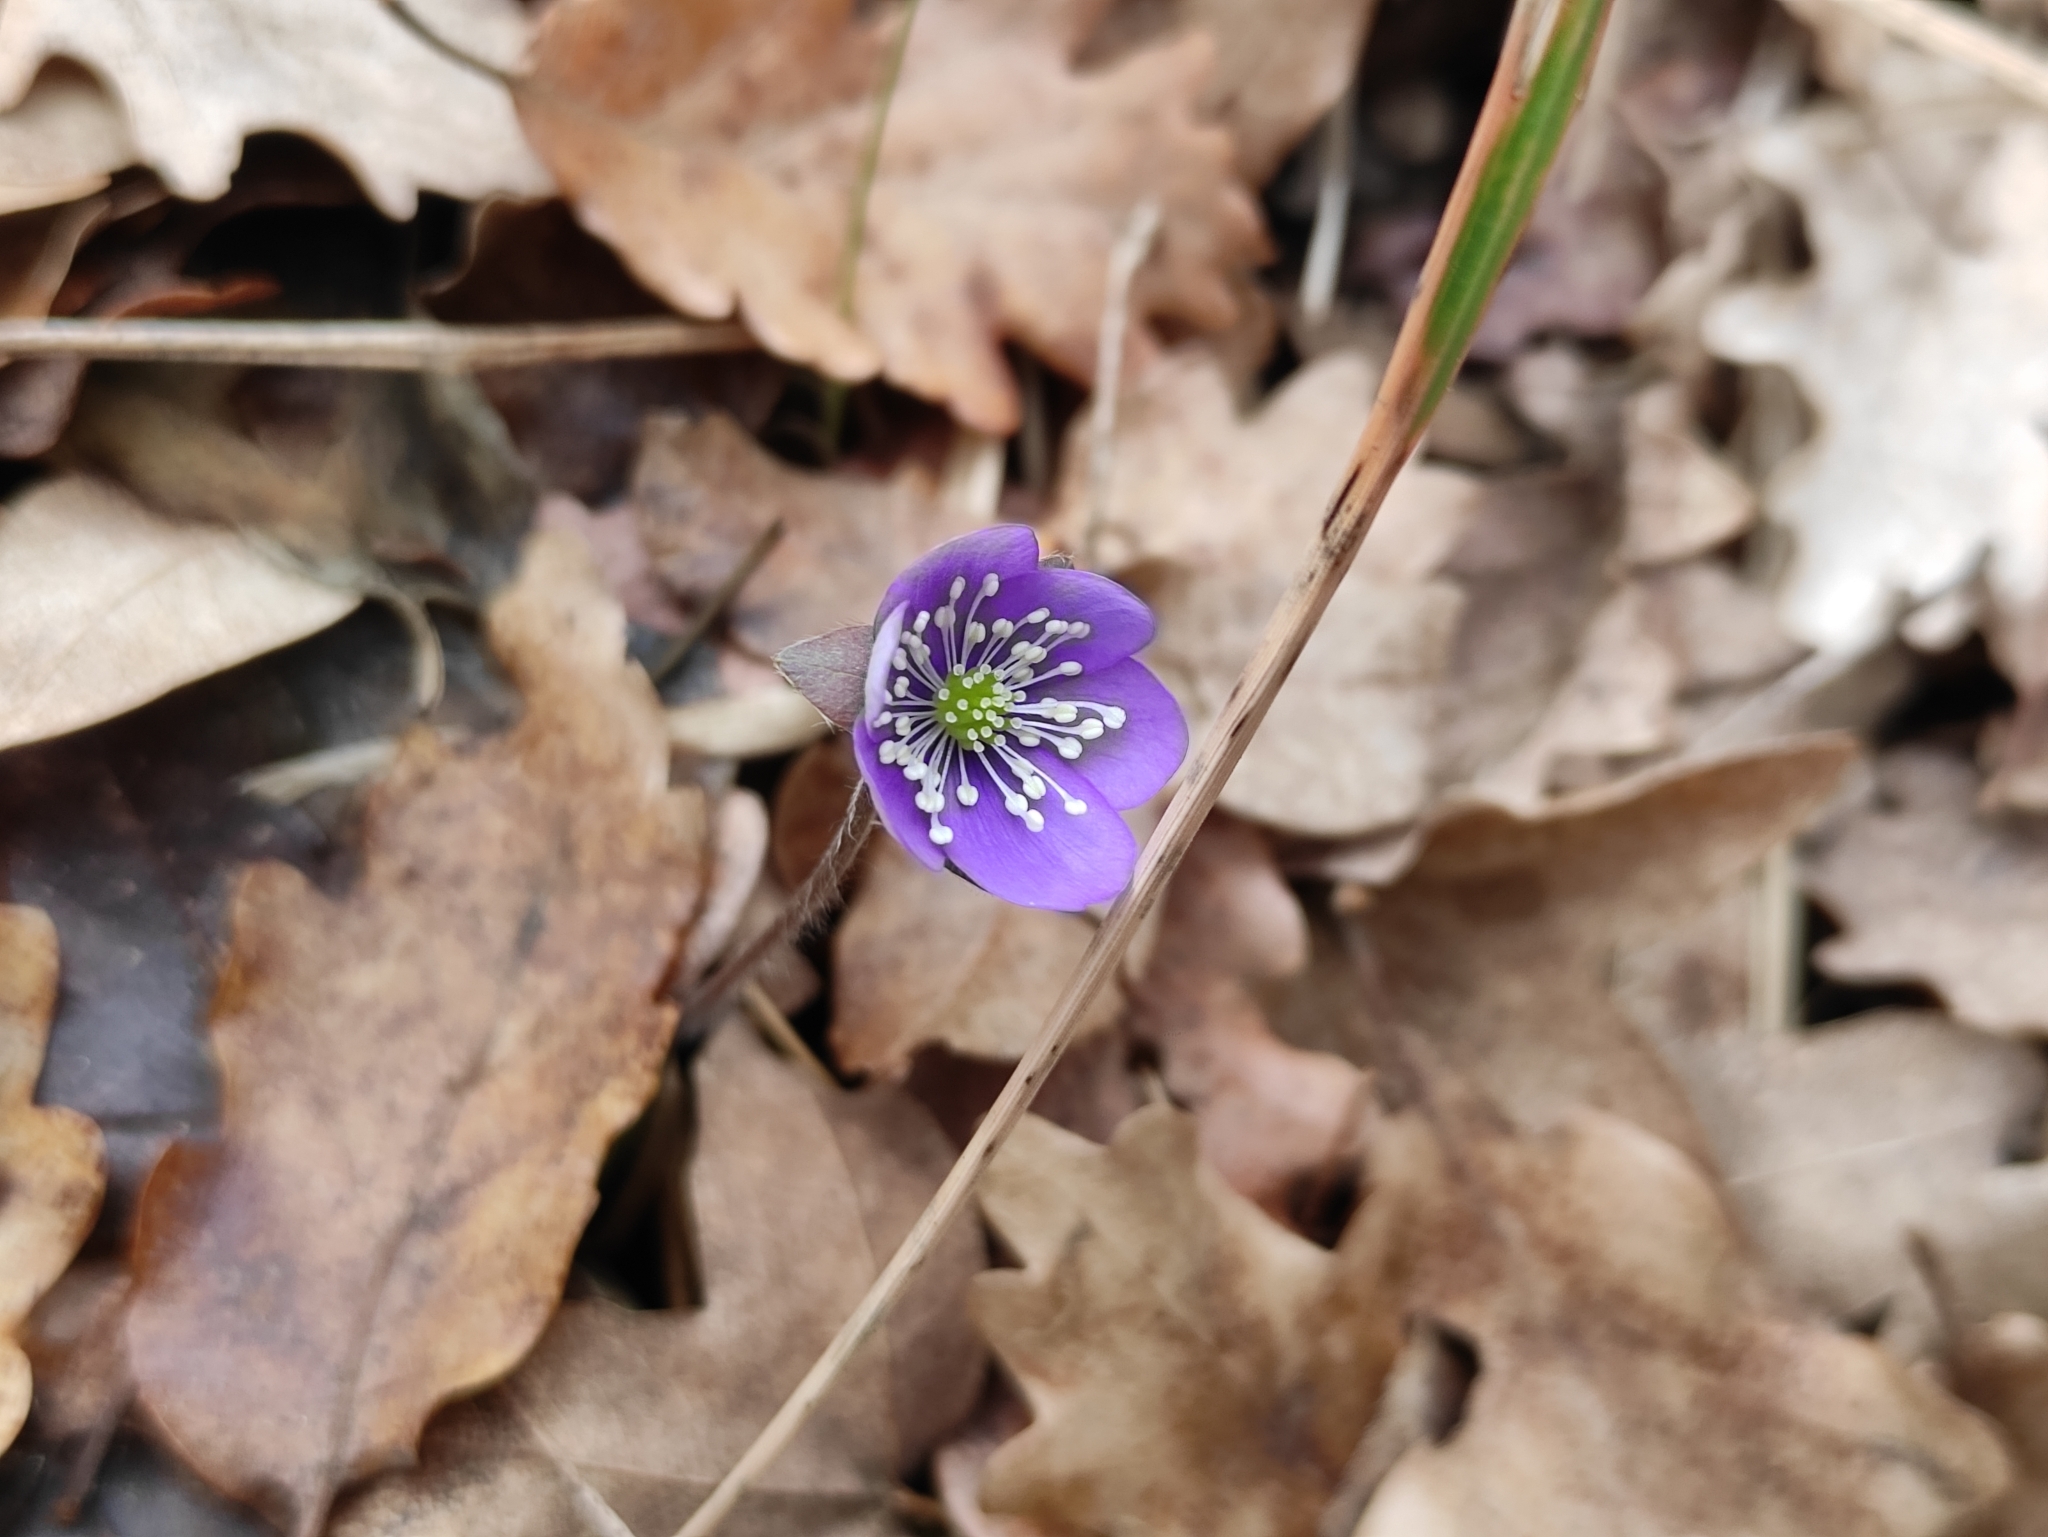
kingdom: Plantae
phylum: Tracheophyta
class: Magnoliopsida
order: Ranunculales
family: Ranunculaceae
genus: Hepatica
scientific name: Hepatica nobilis
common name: Liverleaf
